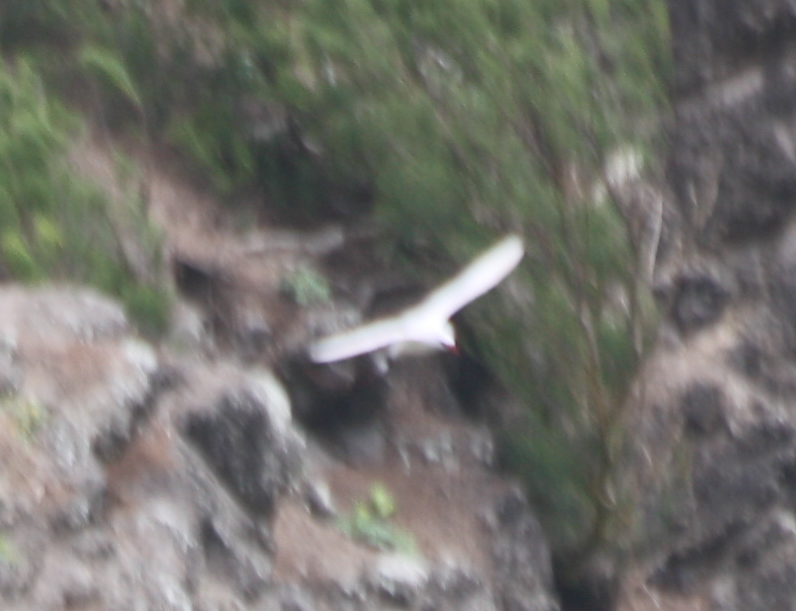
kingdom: Animalia
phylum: Chordata
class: Aves
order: Phaethontiformes
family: Phaethontidae
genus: Phaethon
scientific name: Phaethon rubricauda
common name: Red-tailed tropicbird
